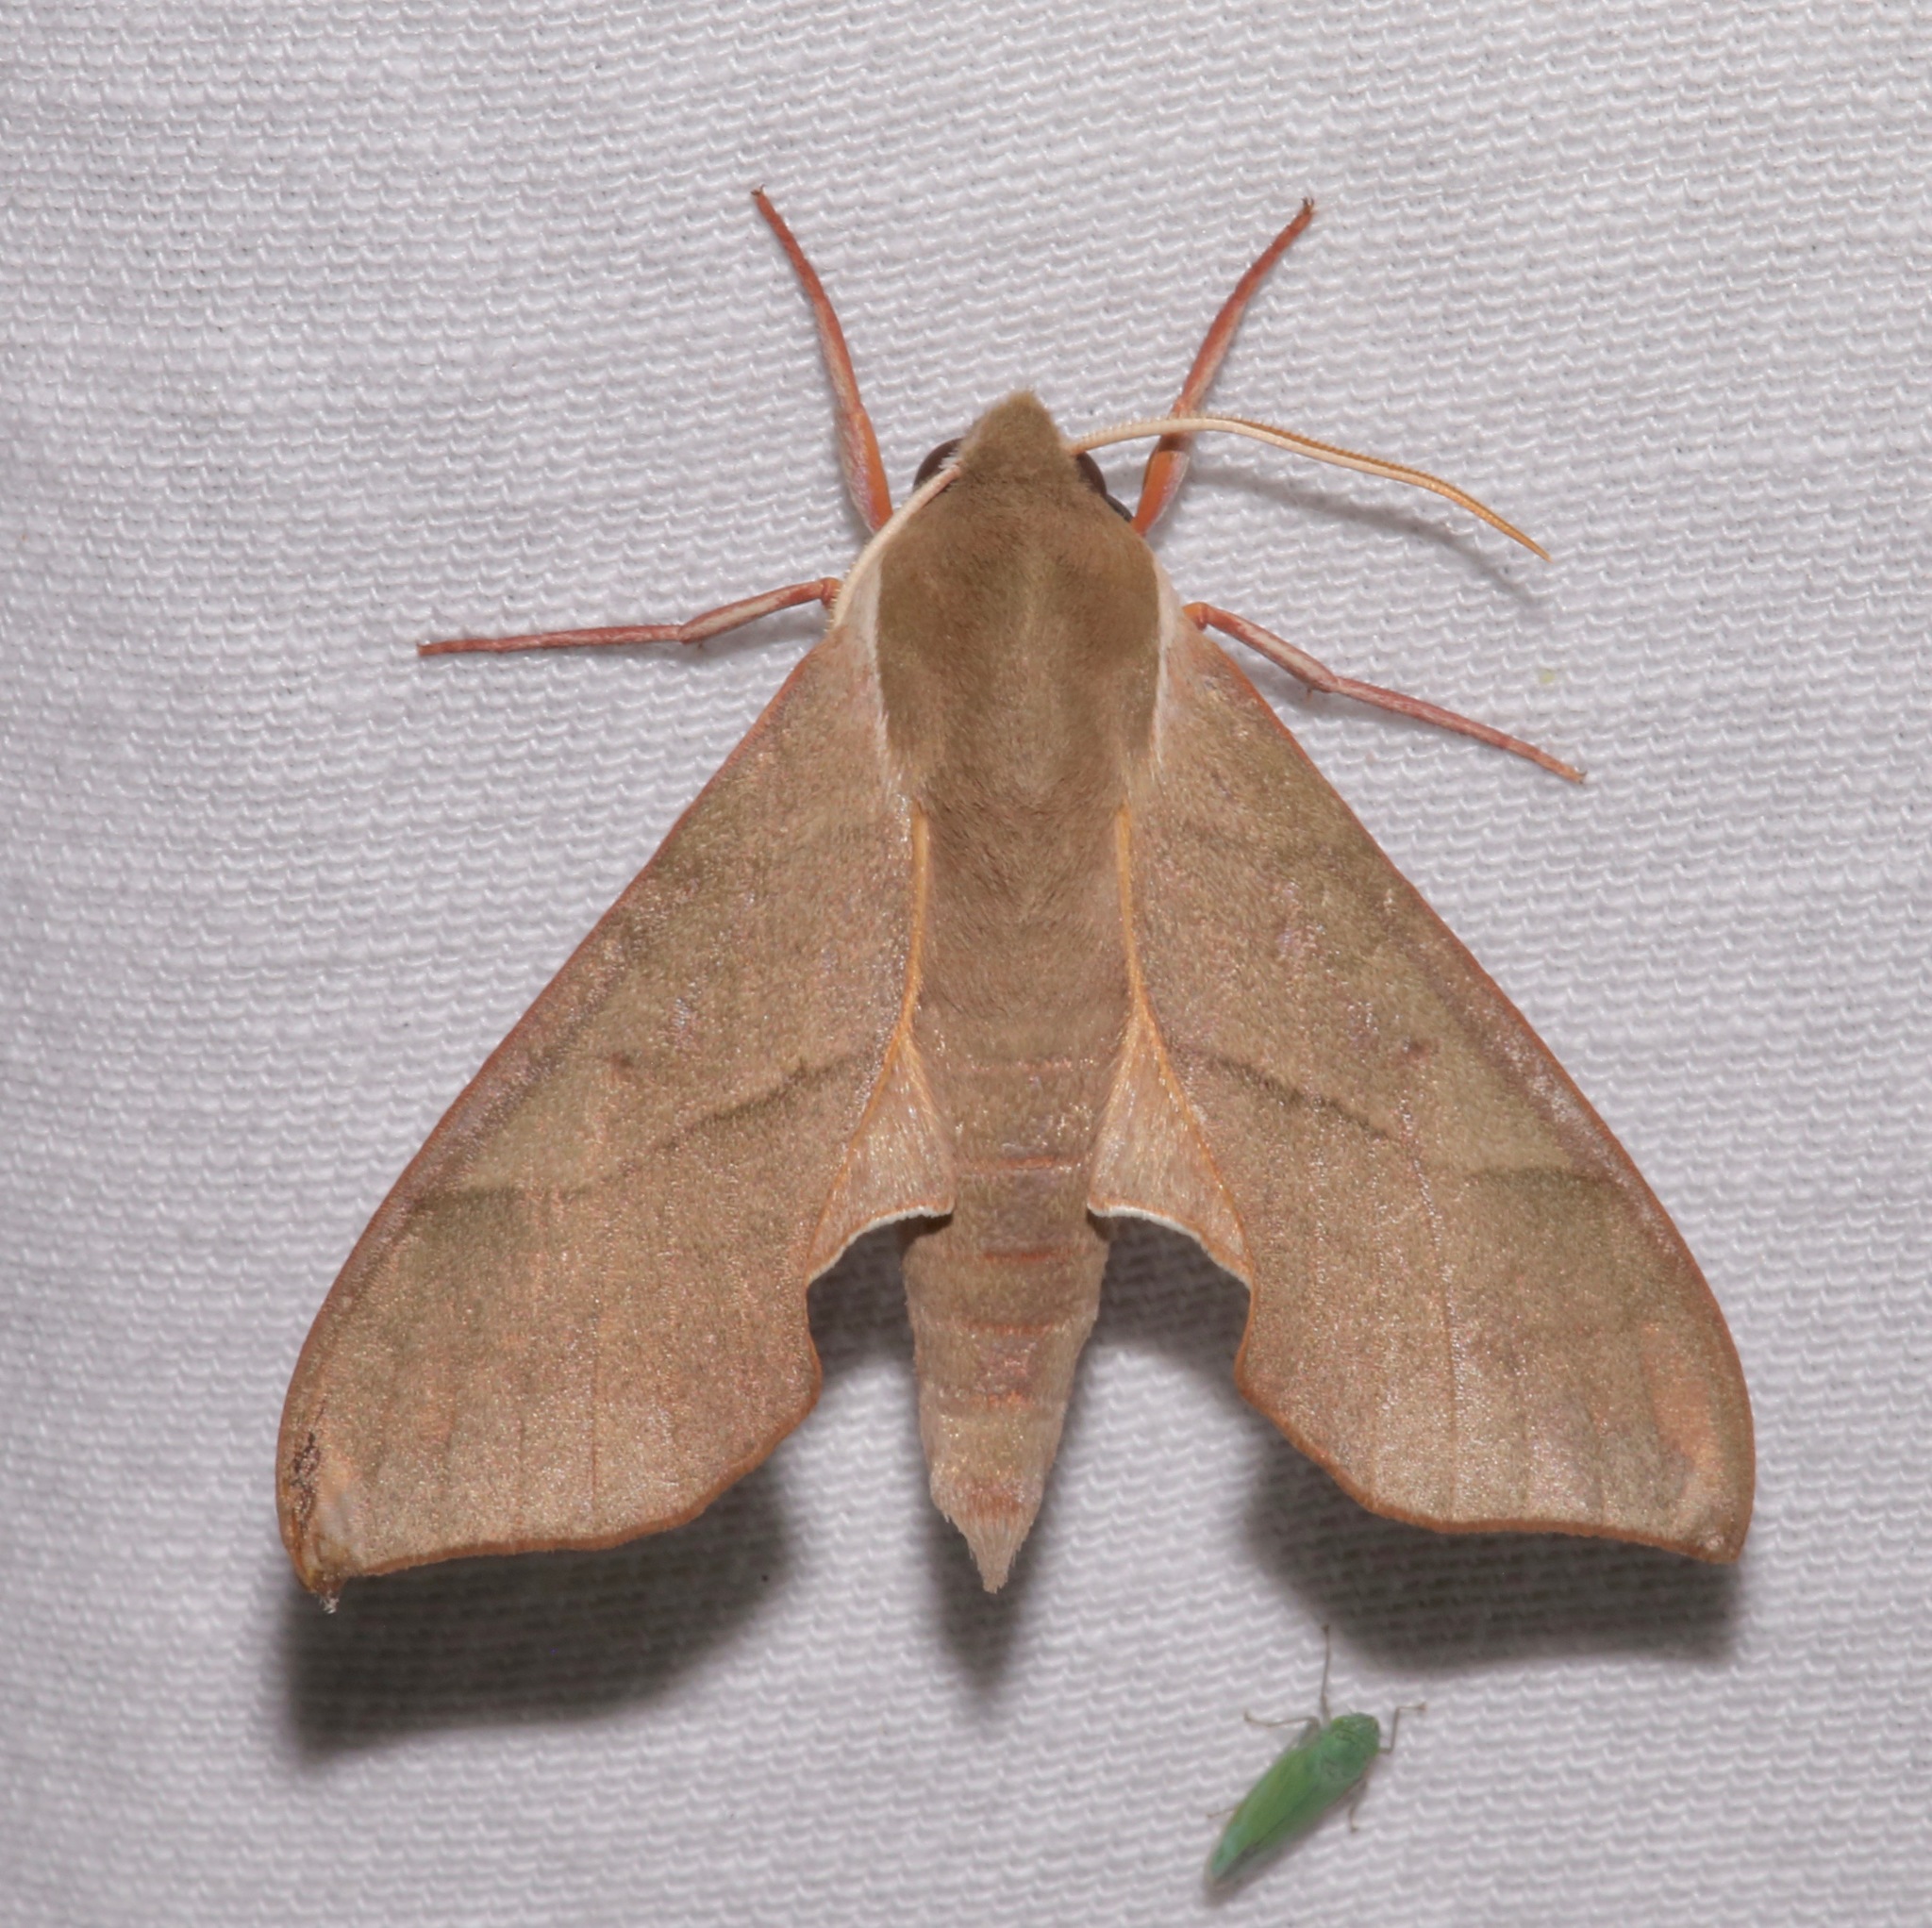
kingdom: Animalia
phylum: Arthropoda
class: Insecta
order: Lepidoptera
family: Sphingidae
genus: Darapsa
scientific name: Darapsa myron
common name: Hog sphinx
